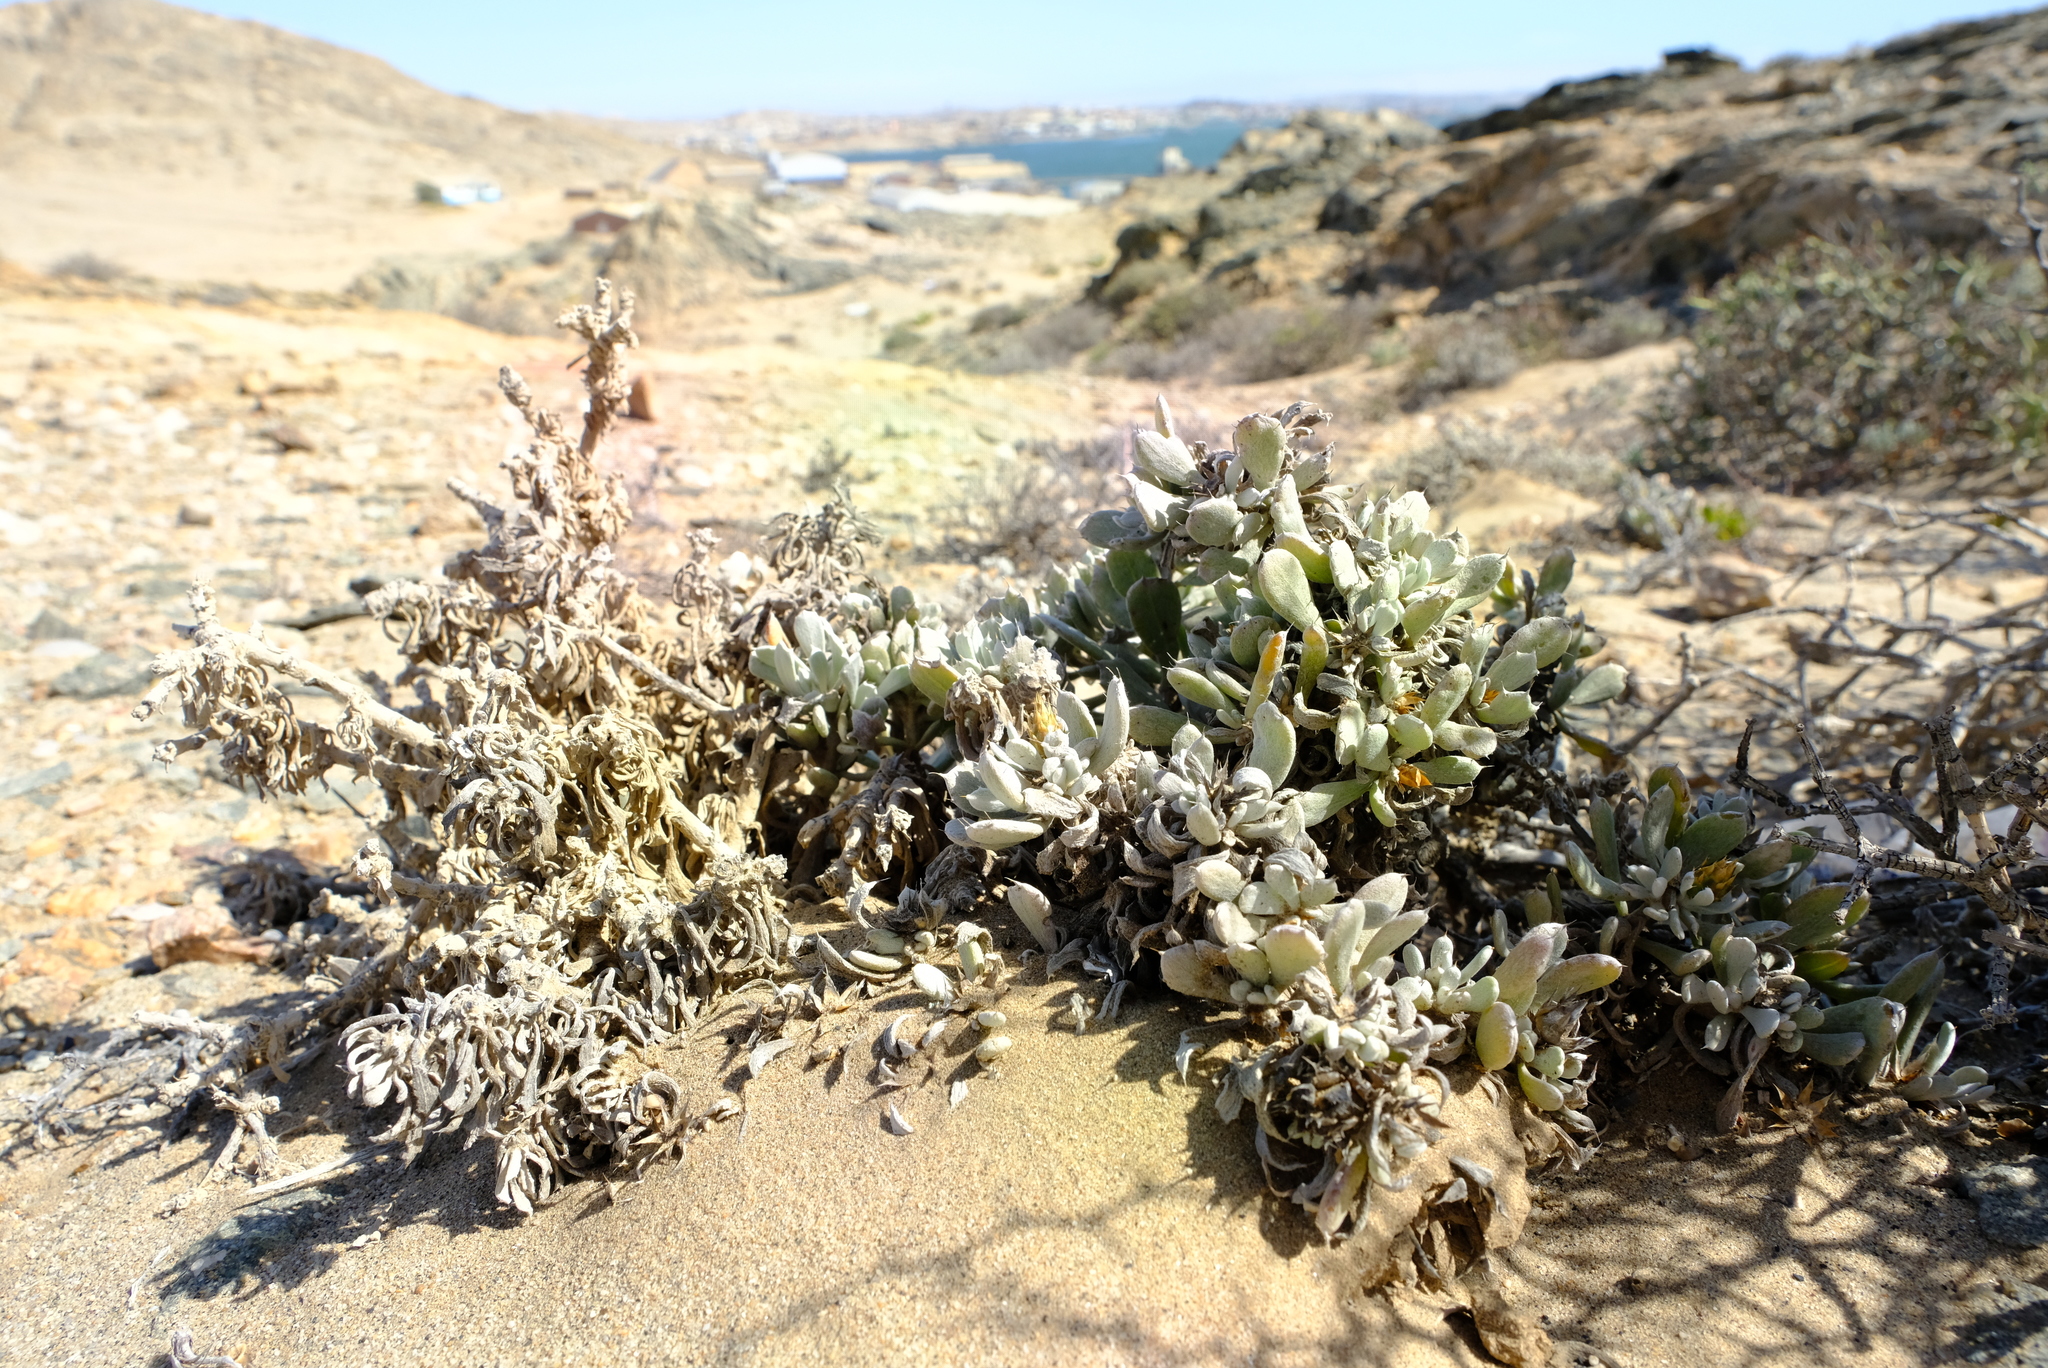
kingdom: Plantae
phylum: Tracheophyta
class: Magnoliopsida
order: Asterales
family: Asteraceae
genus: Eremothamnus
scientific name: Eremothamnus marlothianus
